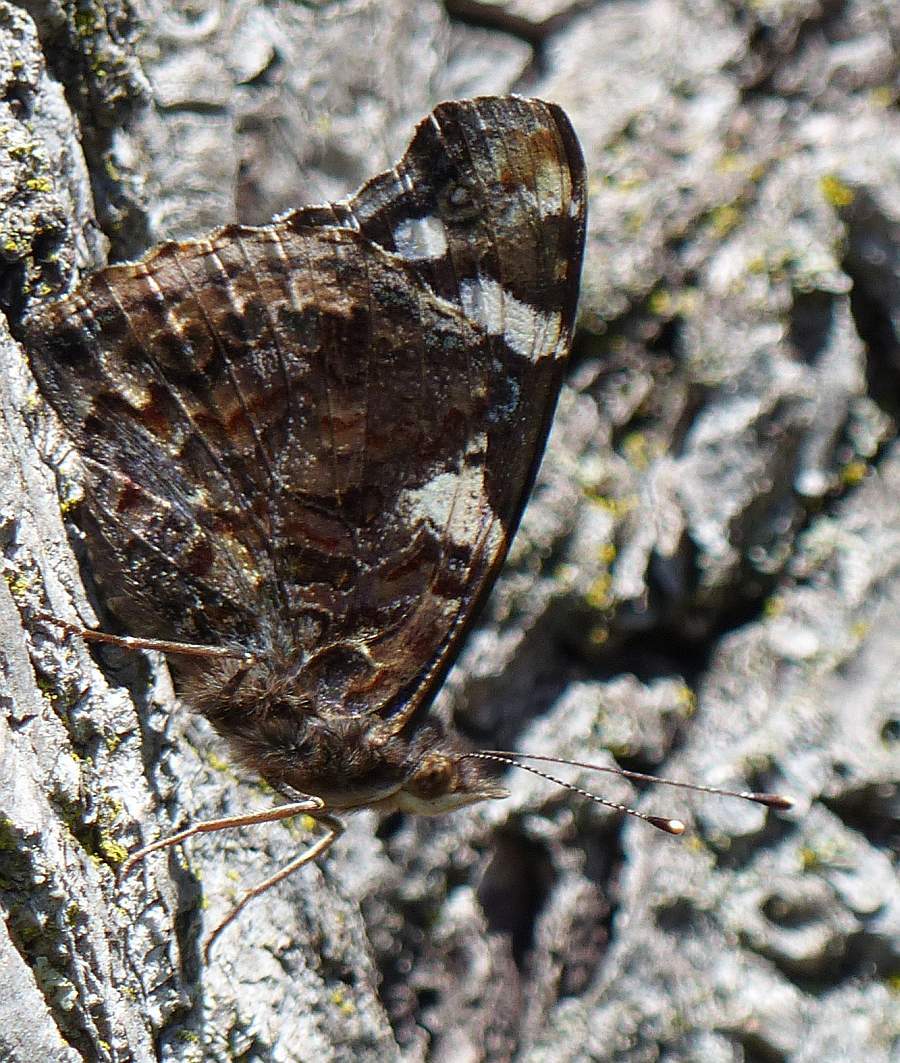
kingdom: Animalia
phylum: Arthropoda
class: Insecta
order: Lepidoptera
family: Nymphalidae
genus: Vanessa
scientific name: Vanessa atalanta
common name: Red admiral
